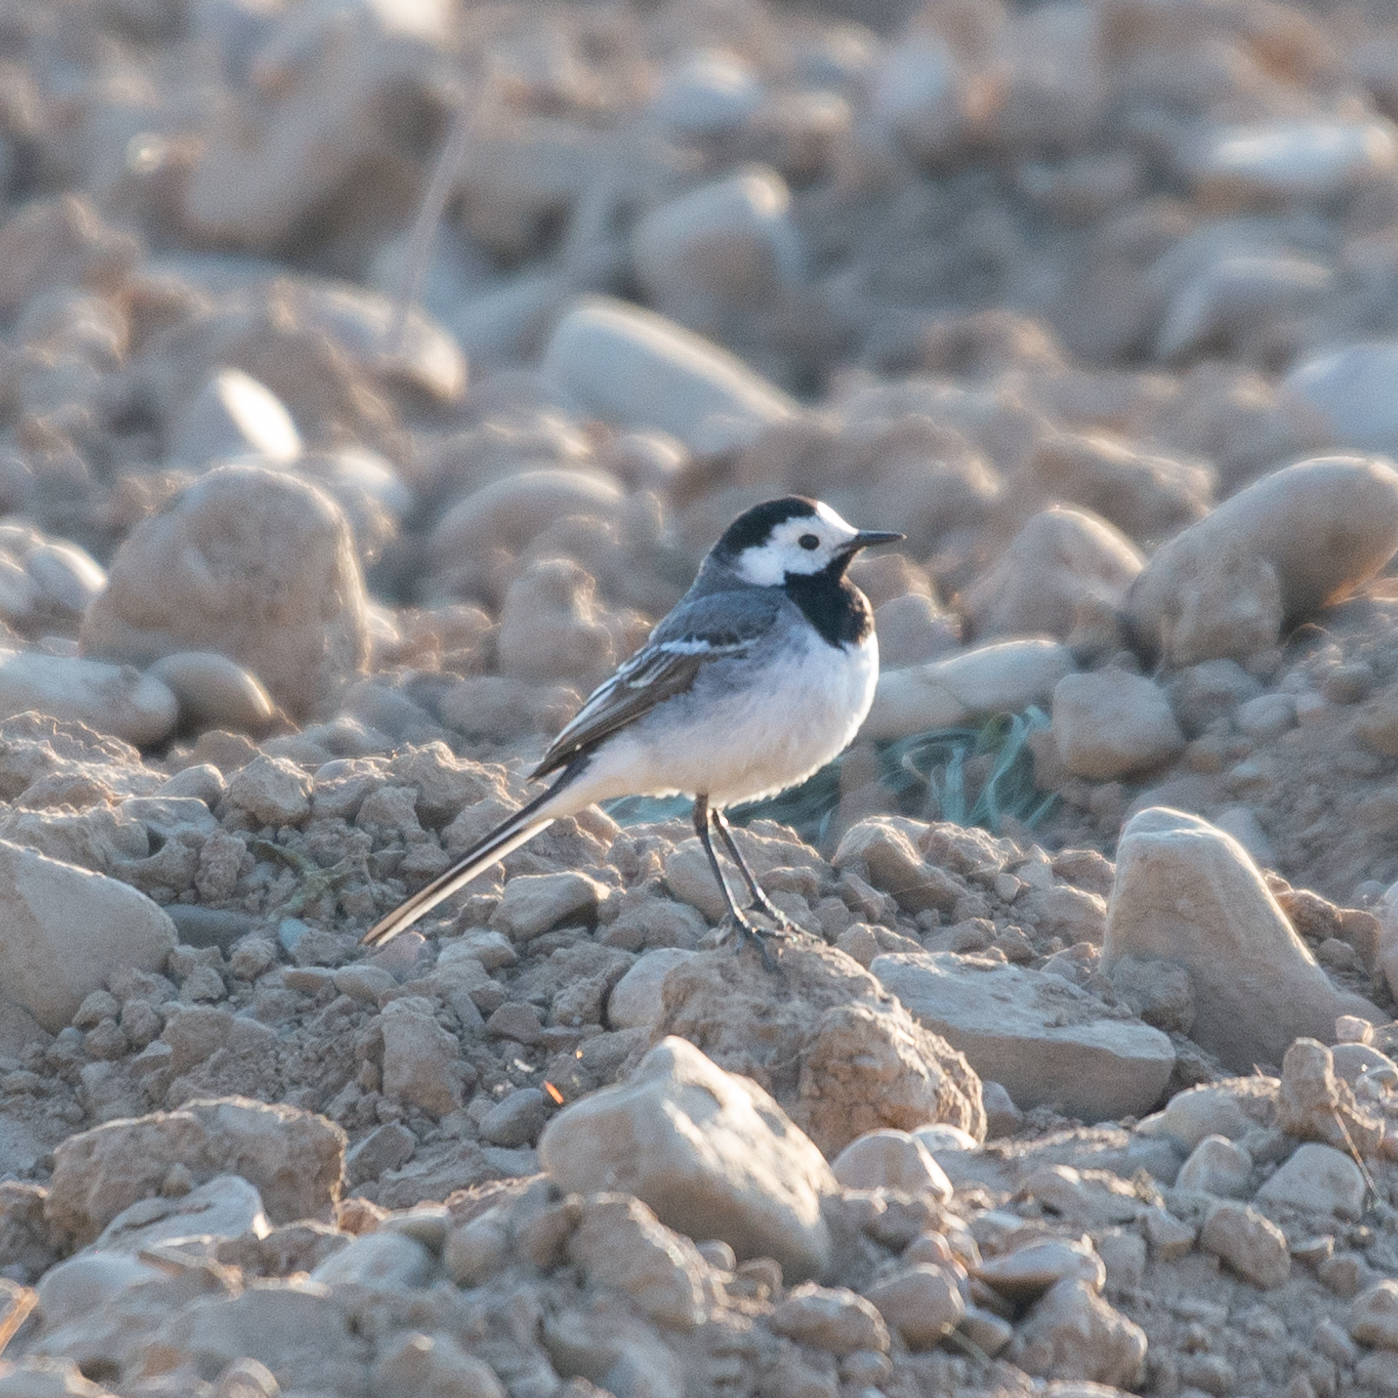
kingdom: Animalia
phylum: Chordata
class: Aves
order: Passeriformes
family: Motacillidae
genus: Motacilla
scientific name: Motacilla alba
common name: White wagtail
